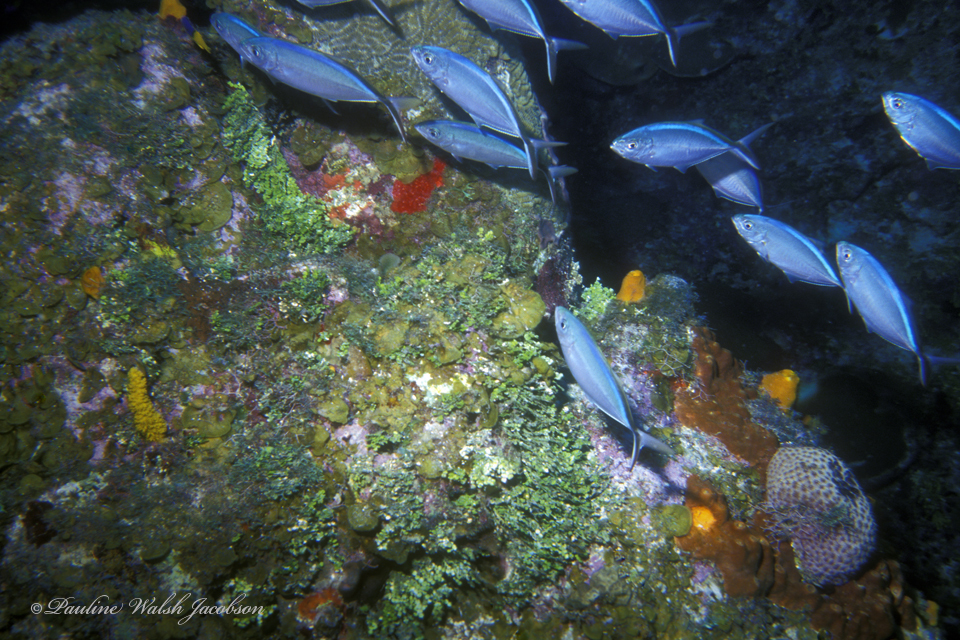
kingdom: Animalia
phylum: Chordata
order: Perciformes
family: Carangidae
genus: Caranx
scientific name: Caranx ruber
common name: Bar jack
